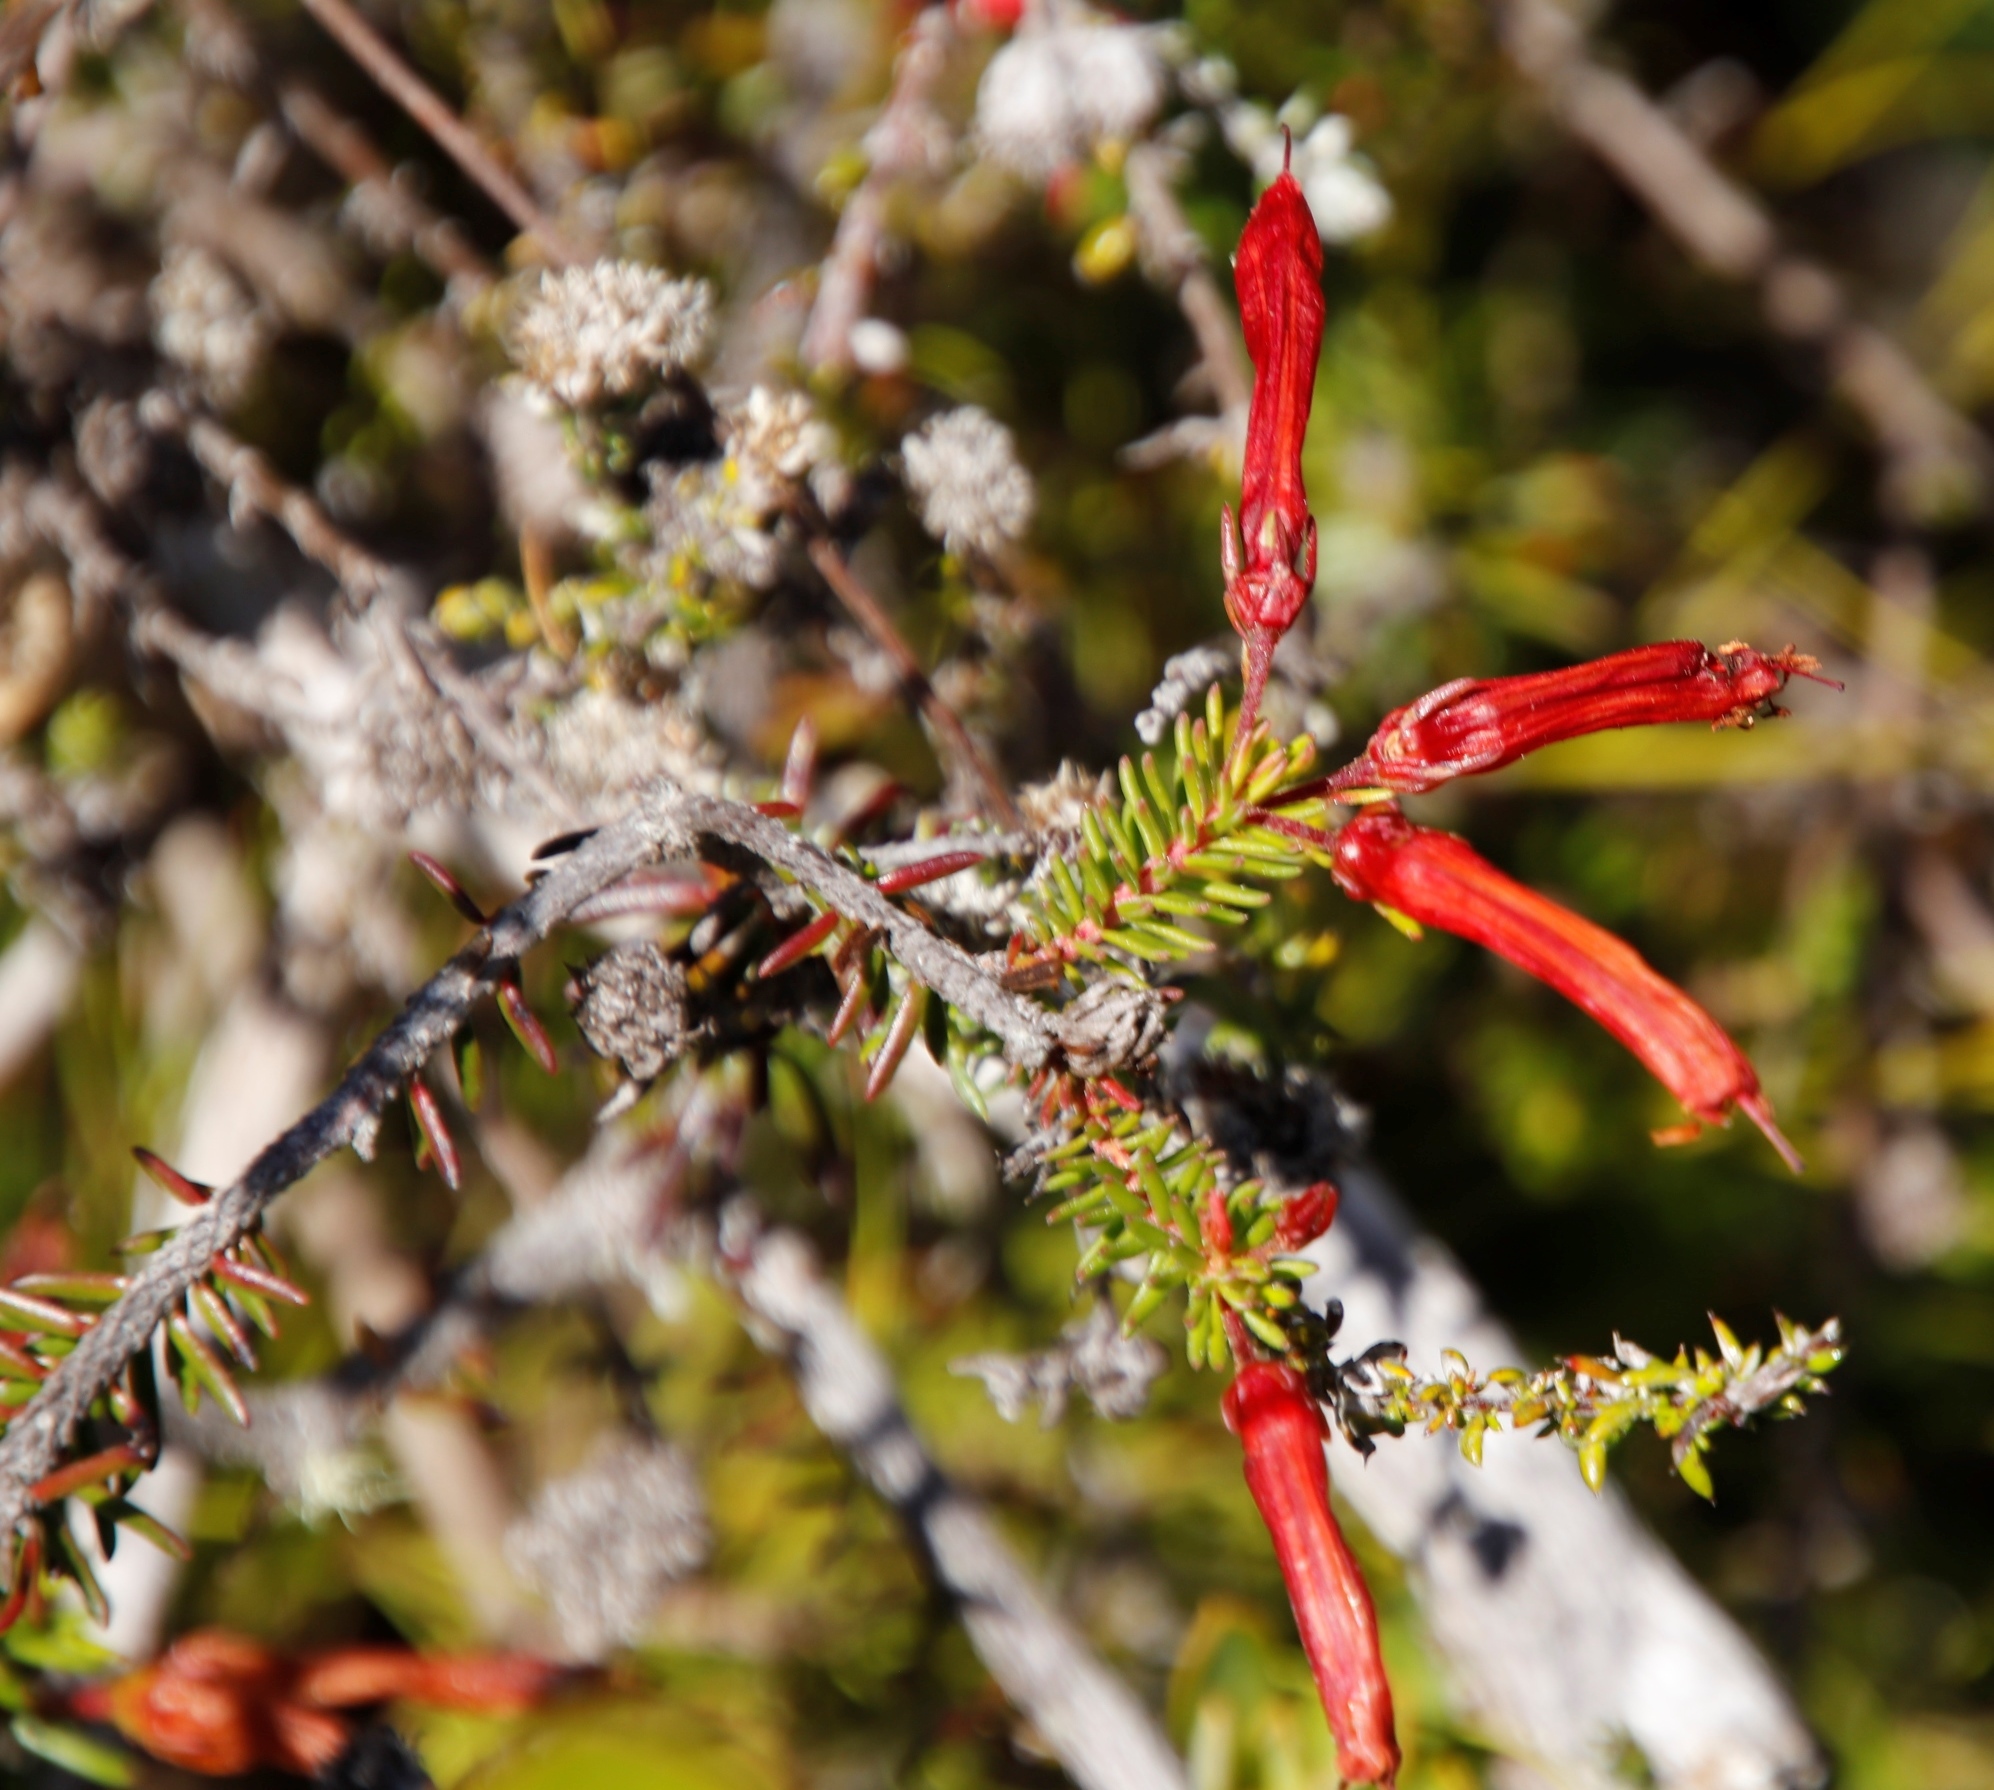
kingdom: Plantae
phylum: Tracheophyta
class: Magnoliopsida
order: Ericales
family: Ericaceae
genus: Erica
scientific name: Erica nevillei
